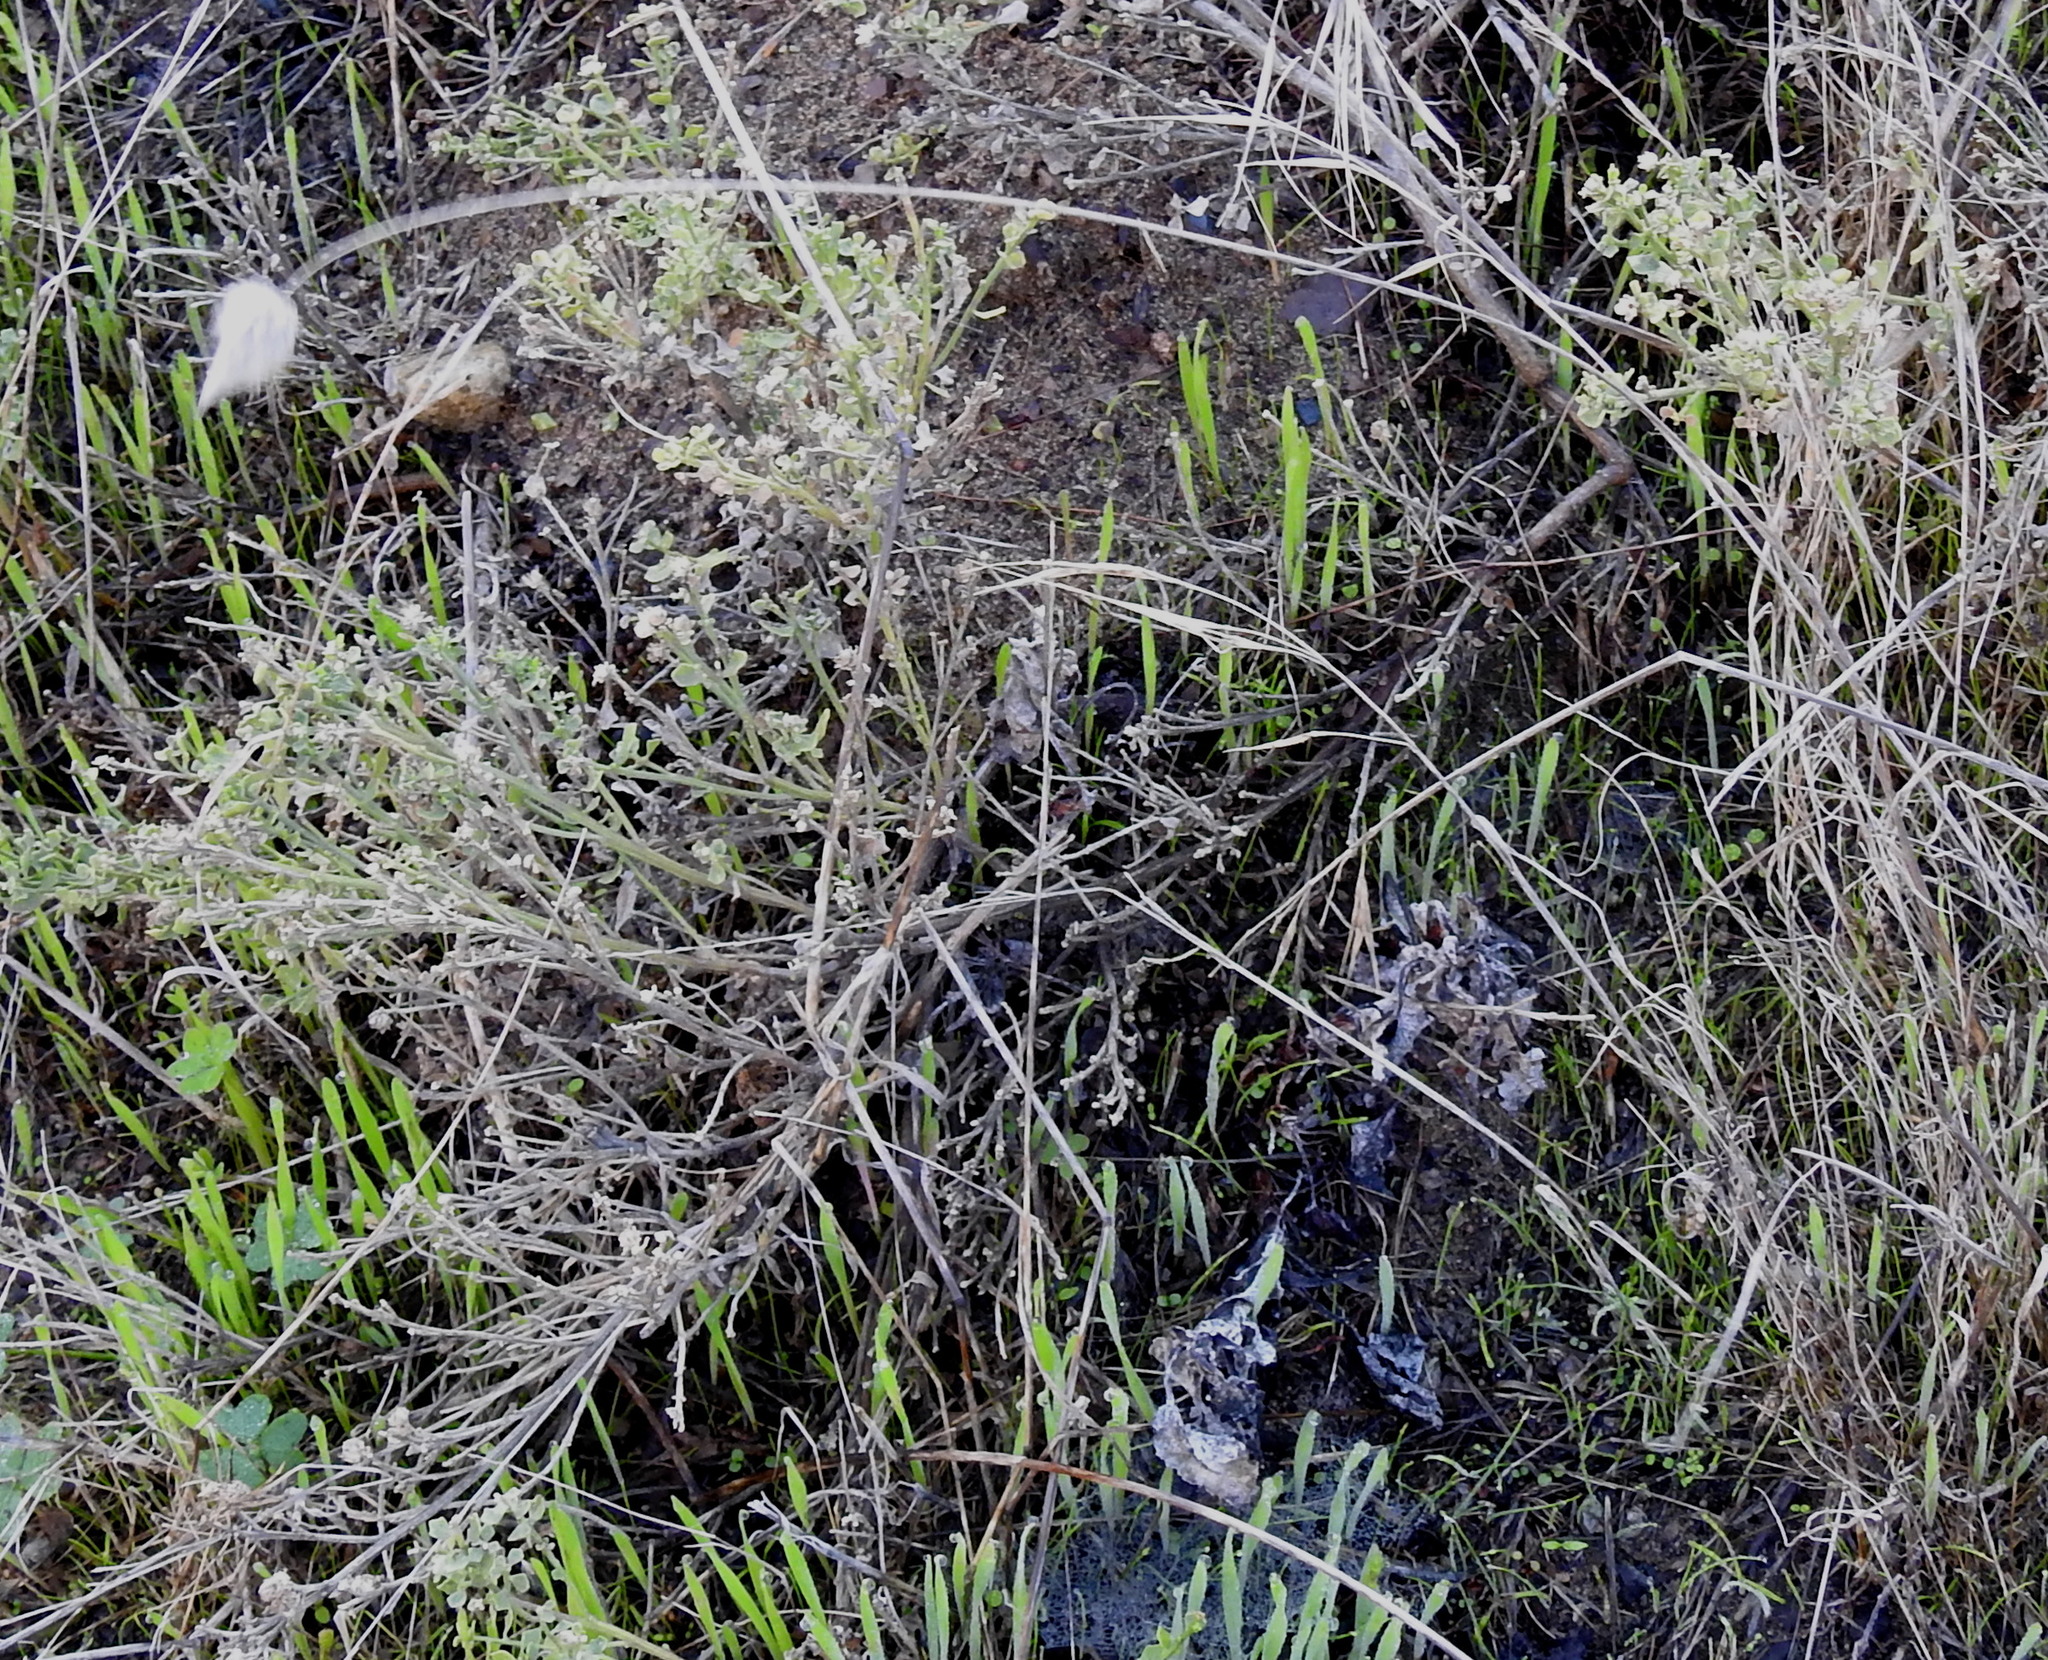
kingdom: Plantae
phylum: Tracheophyta
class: Liliopsida
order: Poales
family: Poaceae
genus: Lagurus
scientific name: Lagurus ovatus
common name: Hare's-tail
